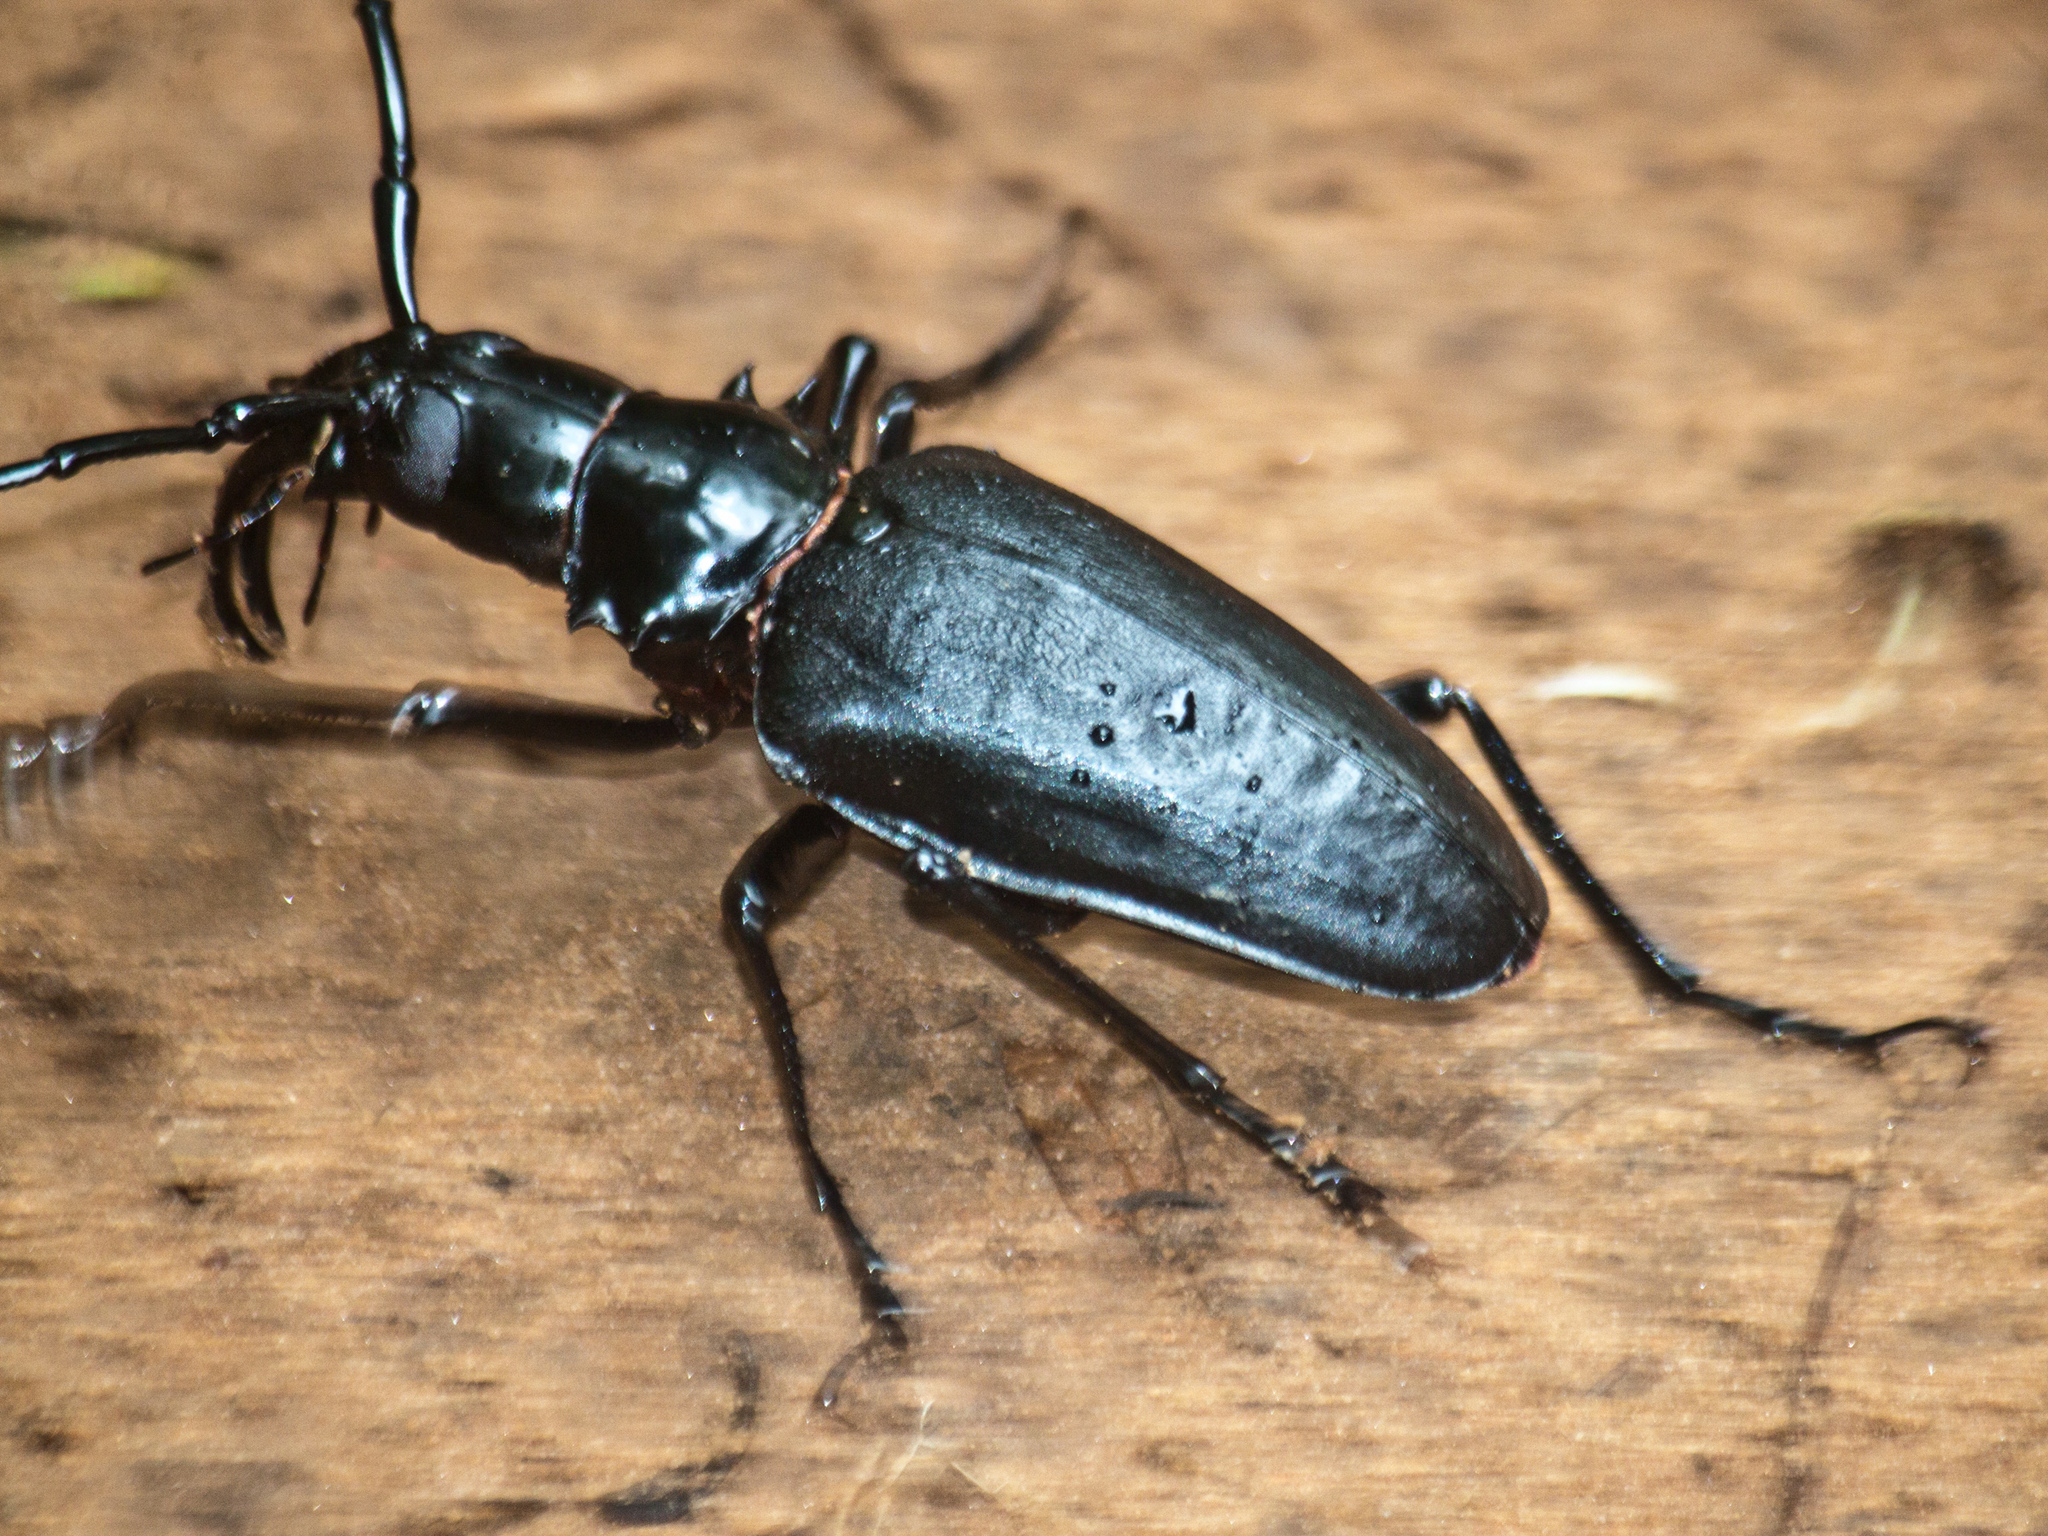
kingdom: Animalia
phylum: Arthropoda
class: Insecta
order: Coleoptera
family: Cerambycidae
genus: Dorysthenes
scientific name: Dorysthenes walkeri
